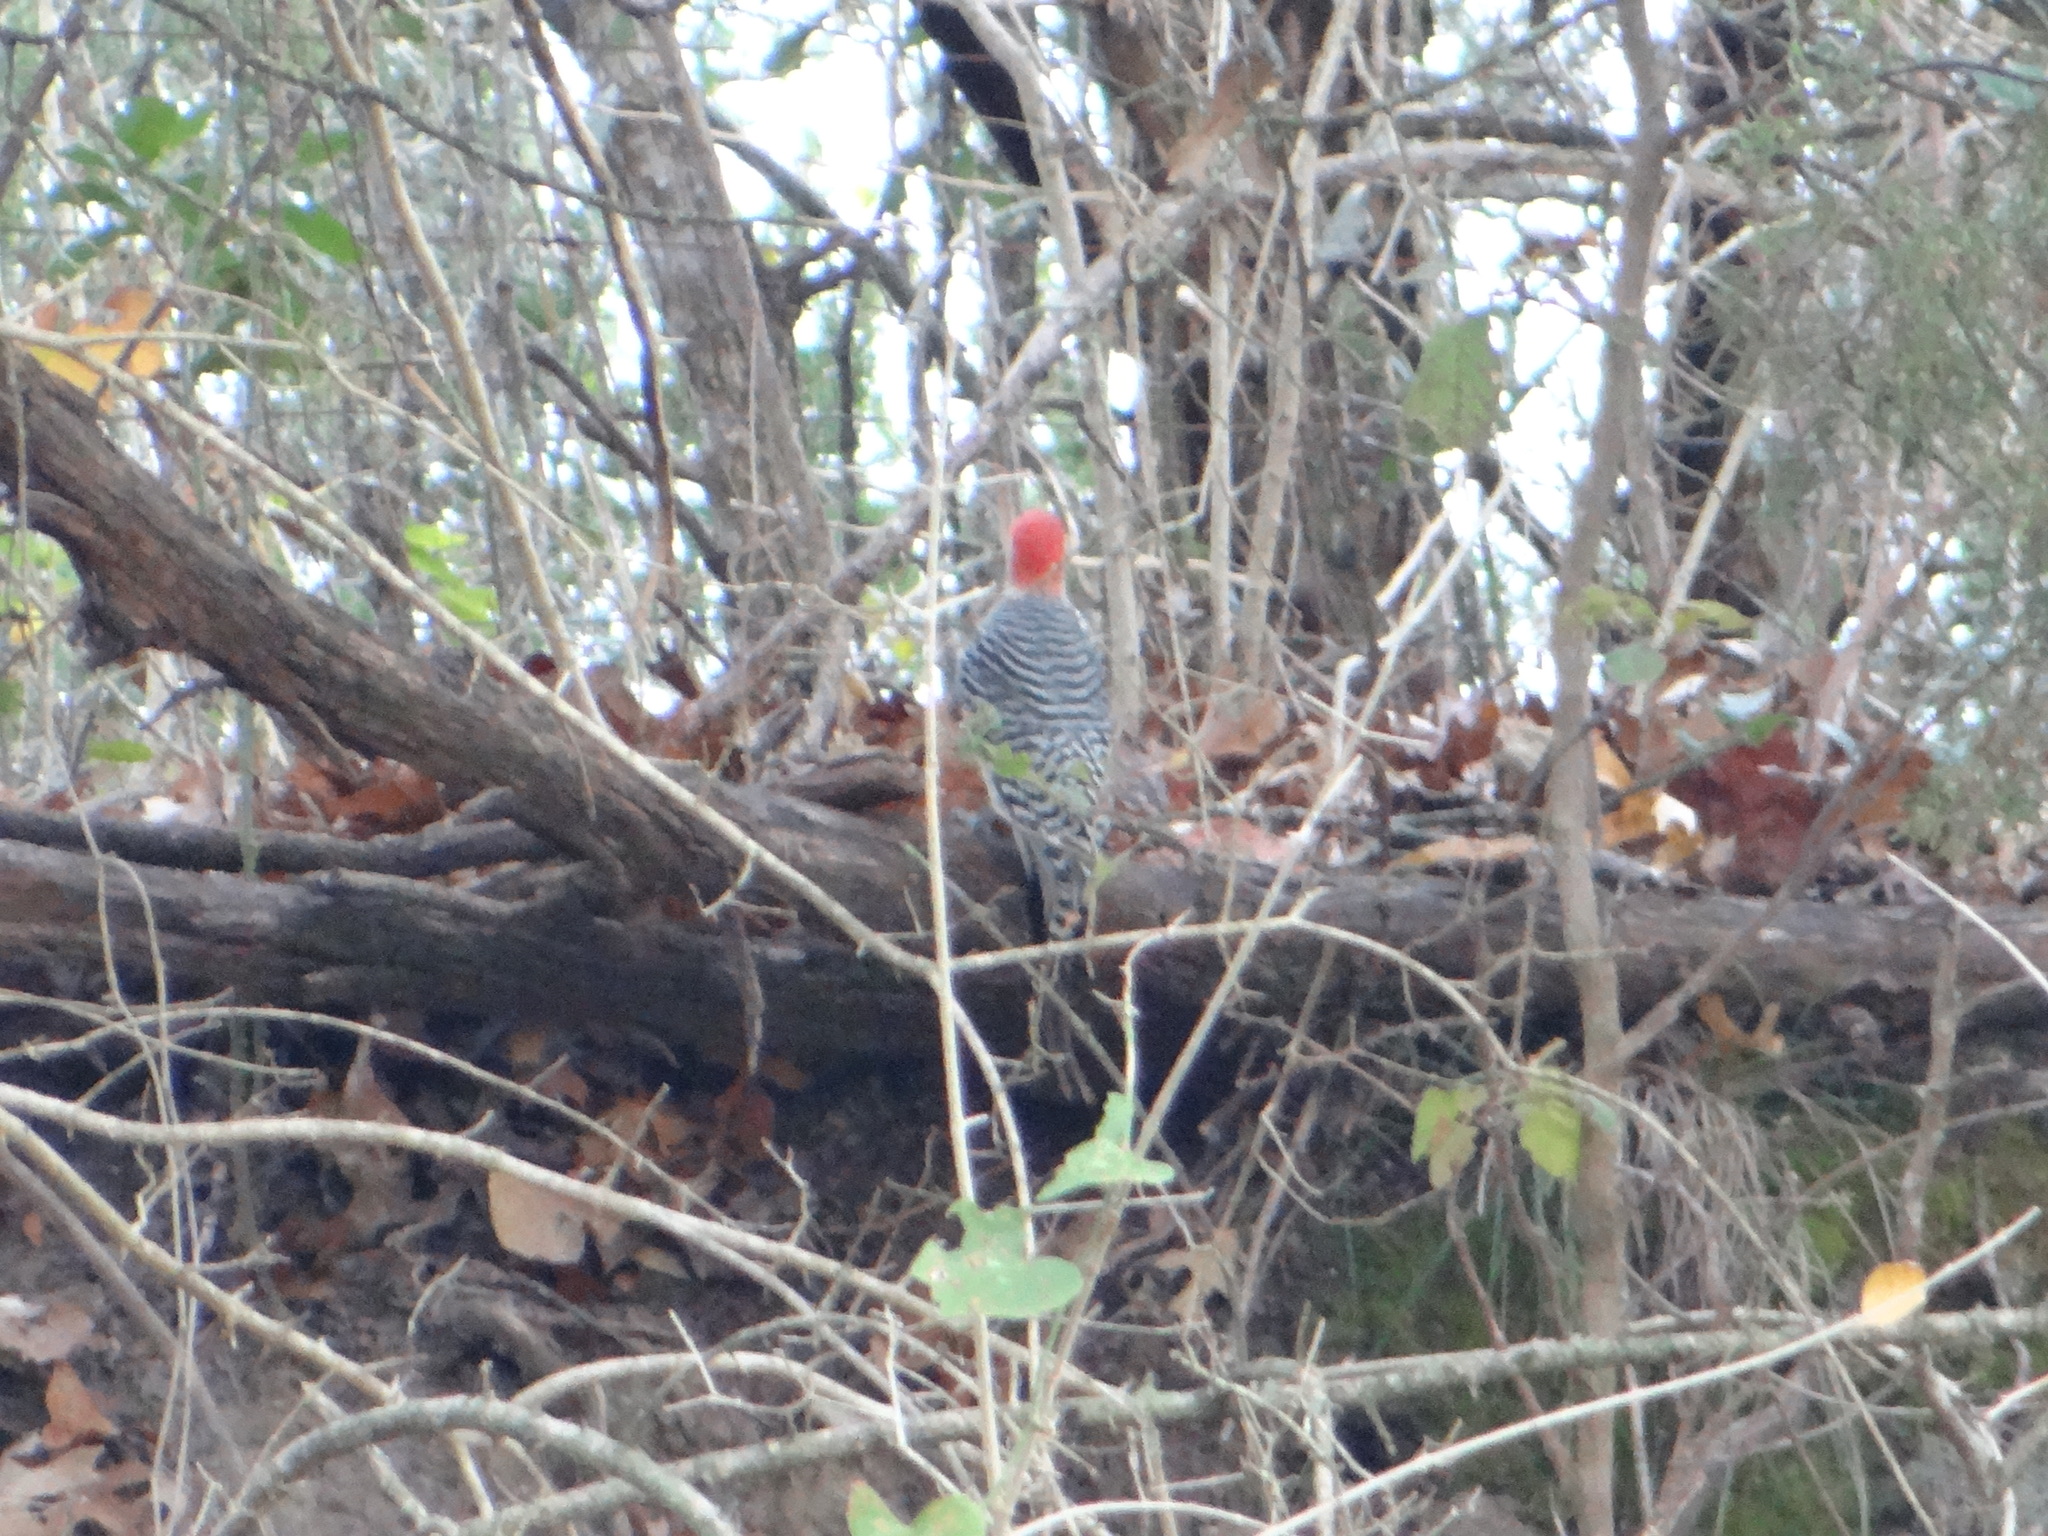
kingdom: Animalia
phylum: Chordata
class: Aves
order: Piciformes
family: Picidae
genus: Melanerpes
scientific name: Melanerpes carolinus
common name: Red-bellied woodpecker
